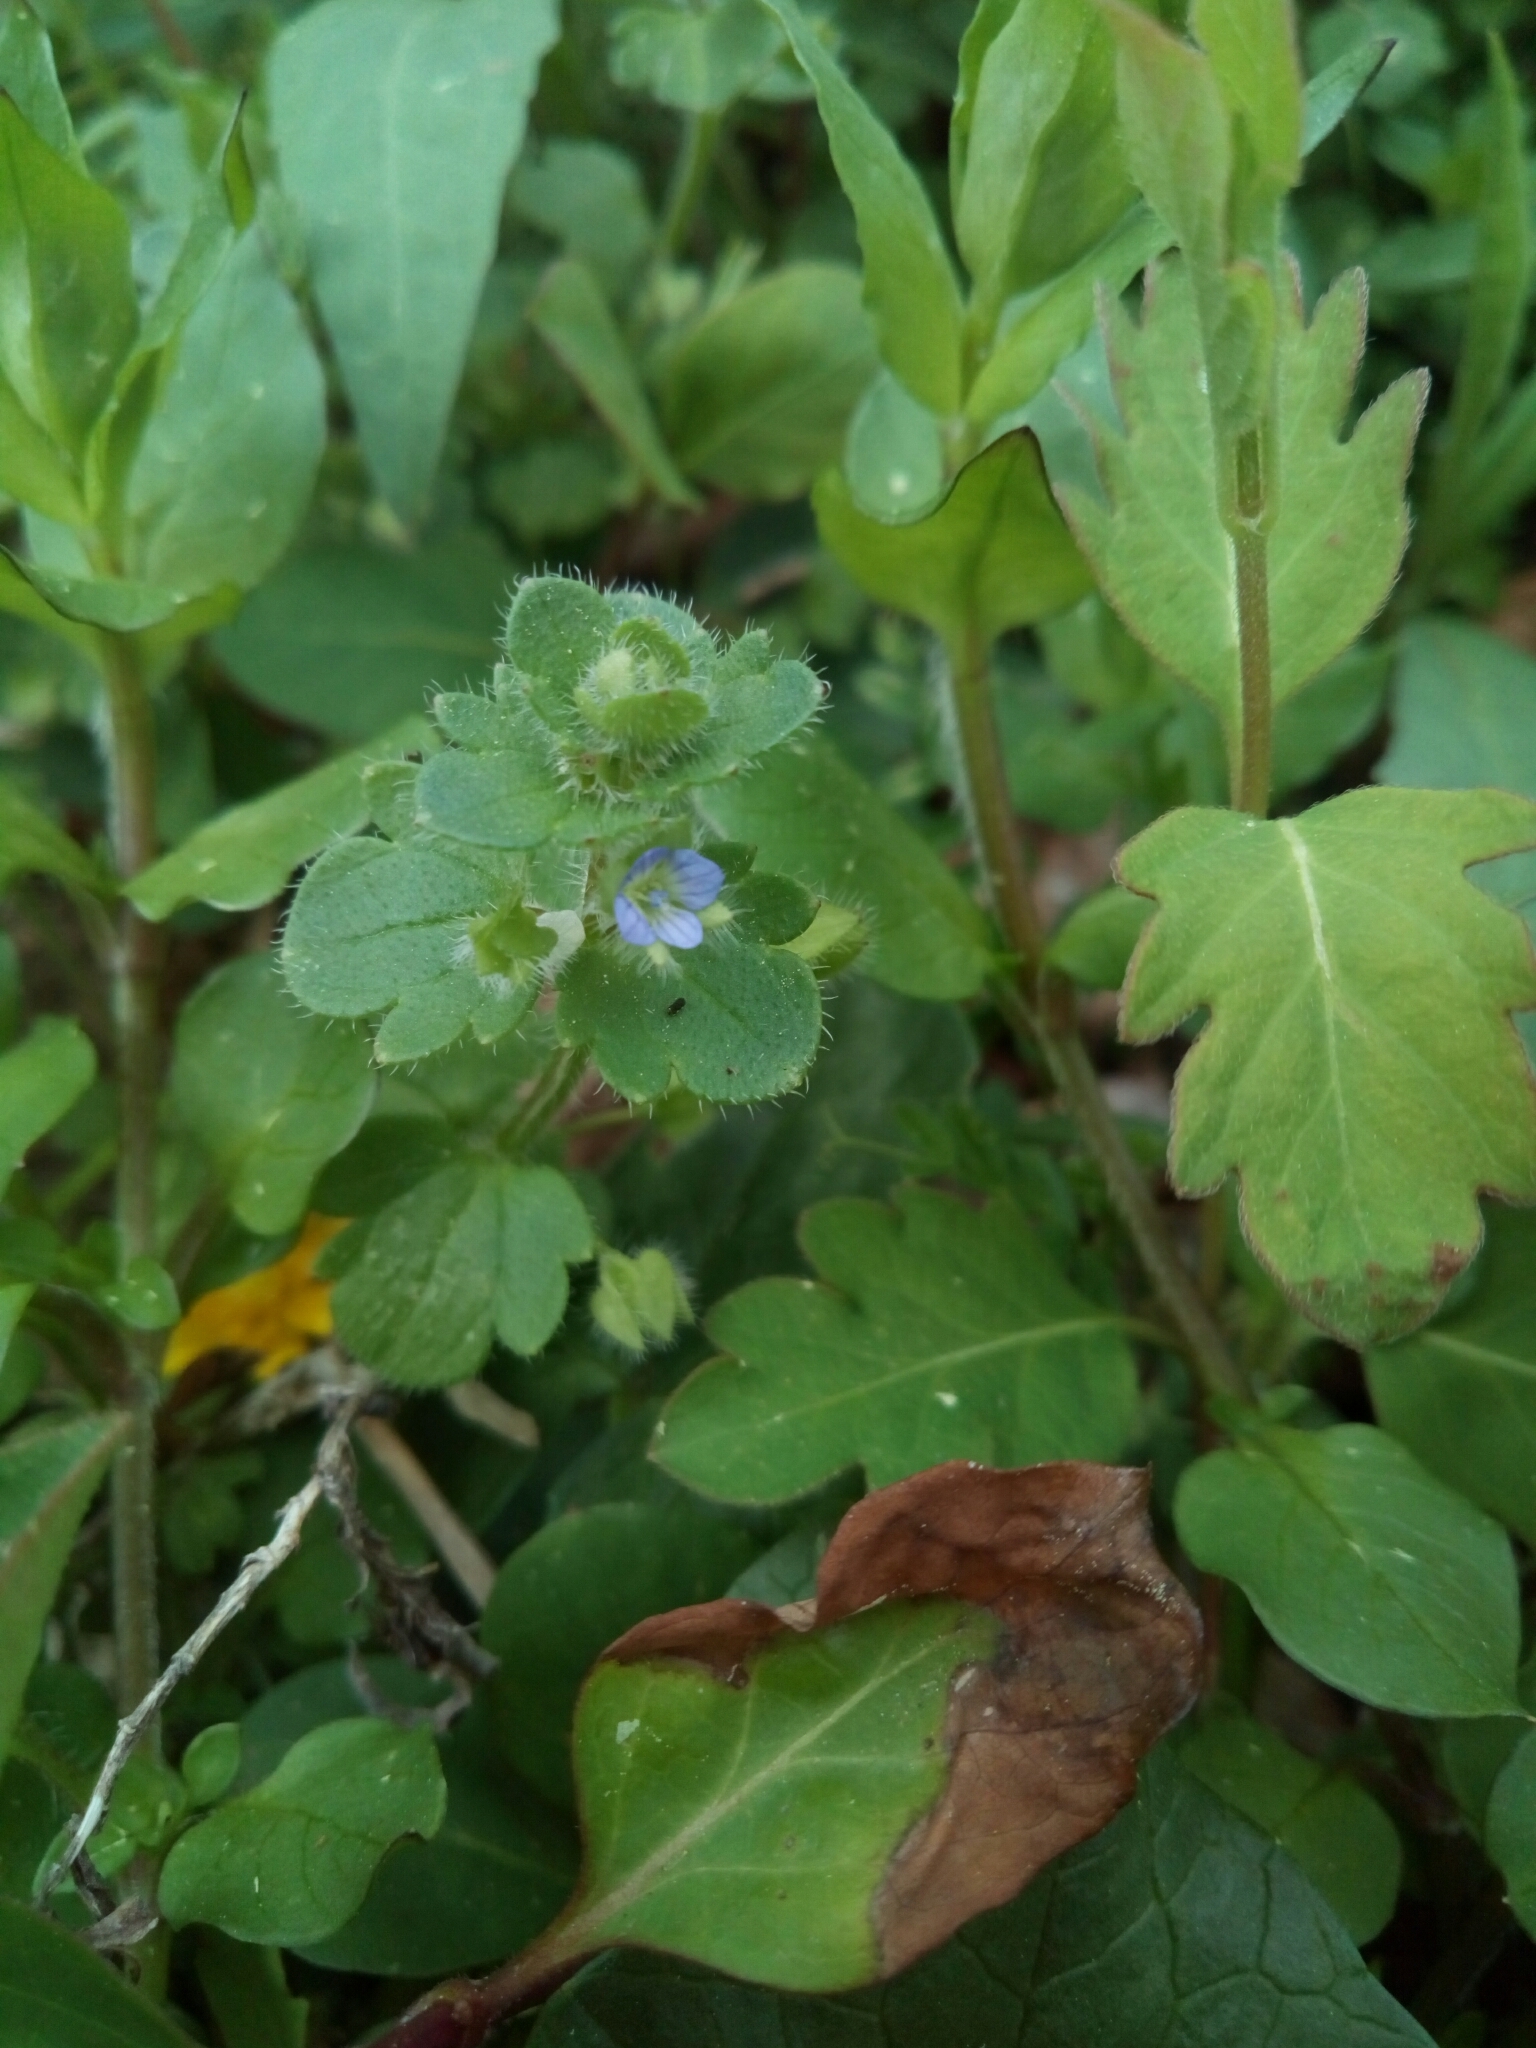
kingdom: Plantae
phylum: Tracheophyta
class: Magnoliopsida
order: Lamiales
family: Plantaginaceae
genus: Veronica
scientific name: Veronica hederifolia
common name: Ivy-leaved speedwell
